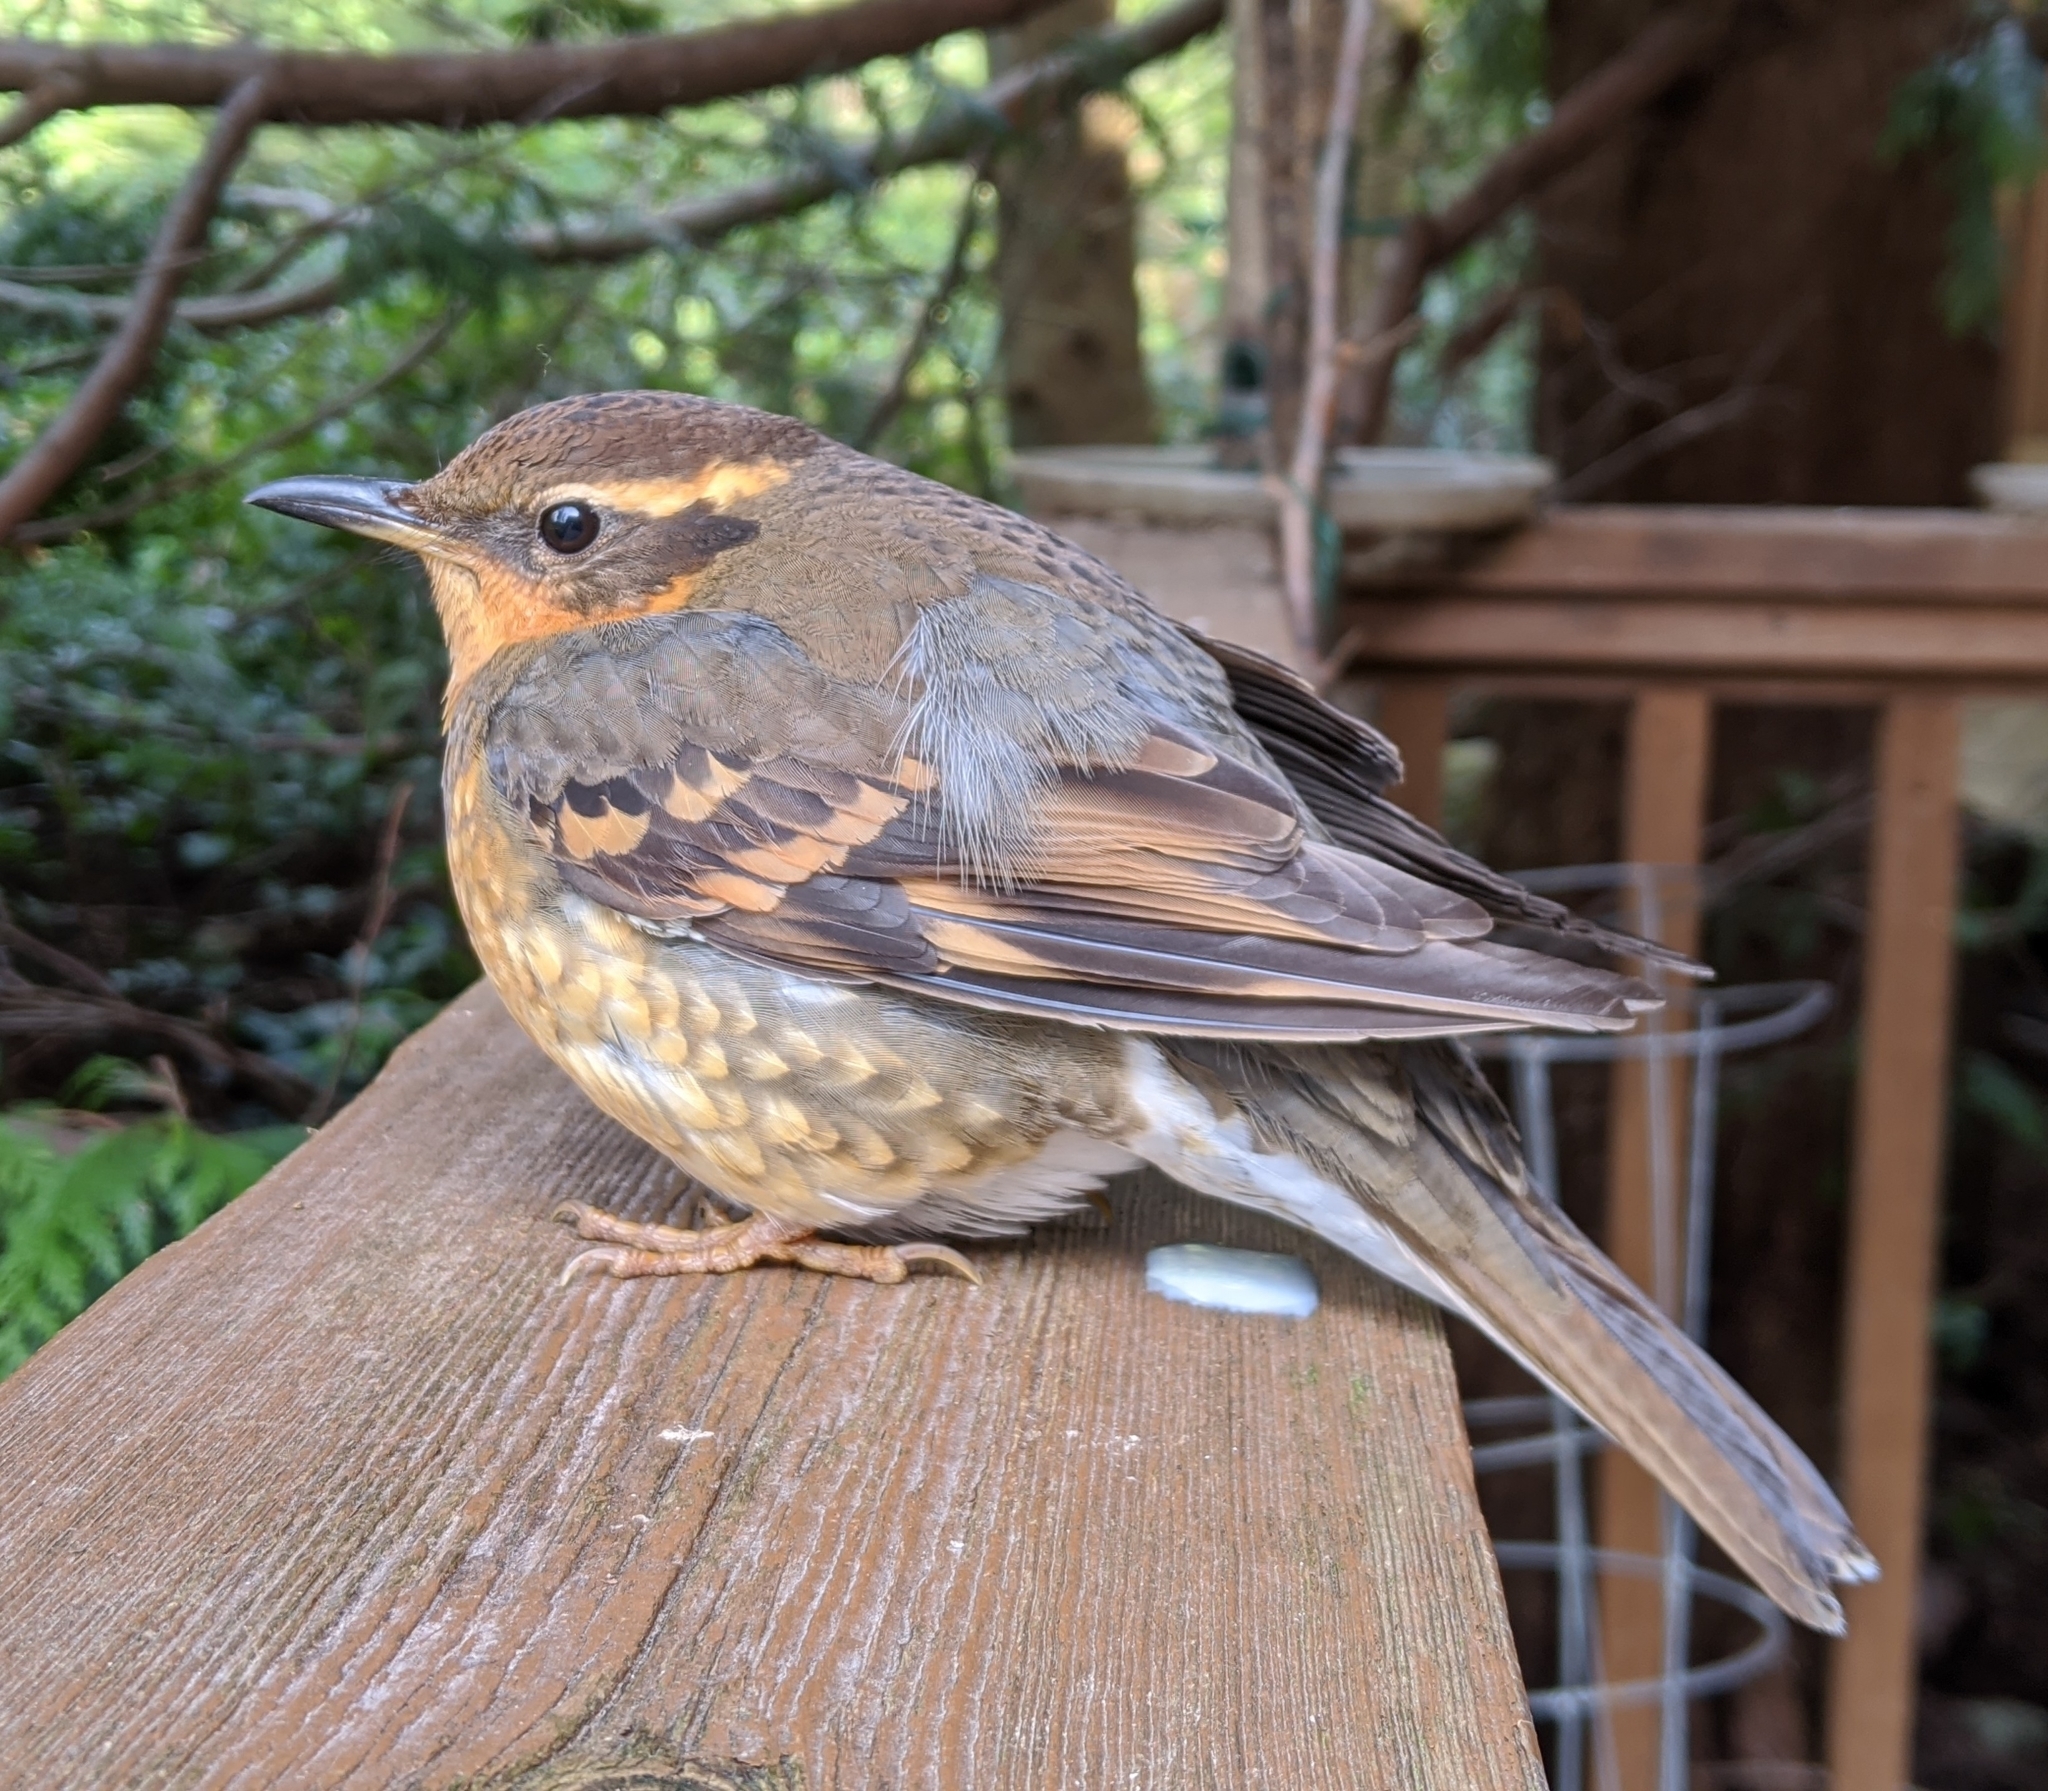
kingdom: Animalia
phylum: Chordata
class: Aves
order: Passeriformes
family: Turdidae
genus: Ixoreus
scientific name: Ixoreus naevius
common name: Varied thrush
